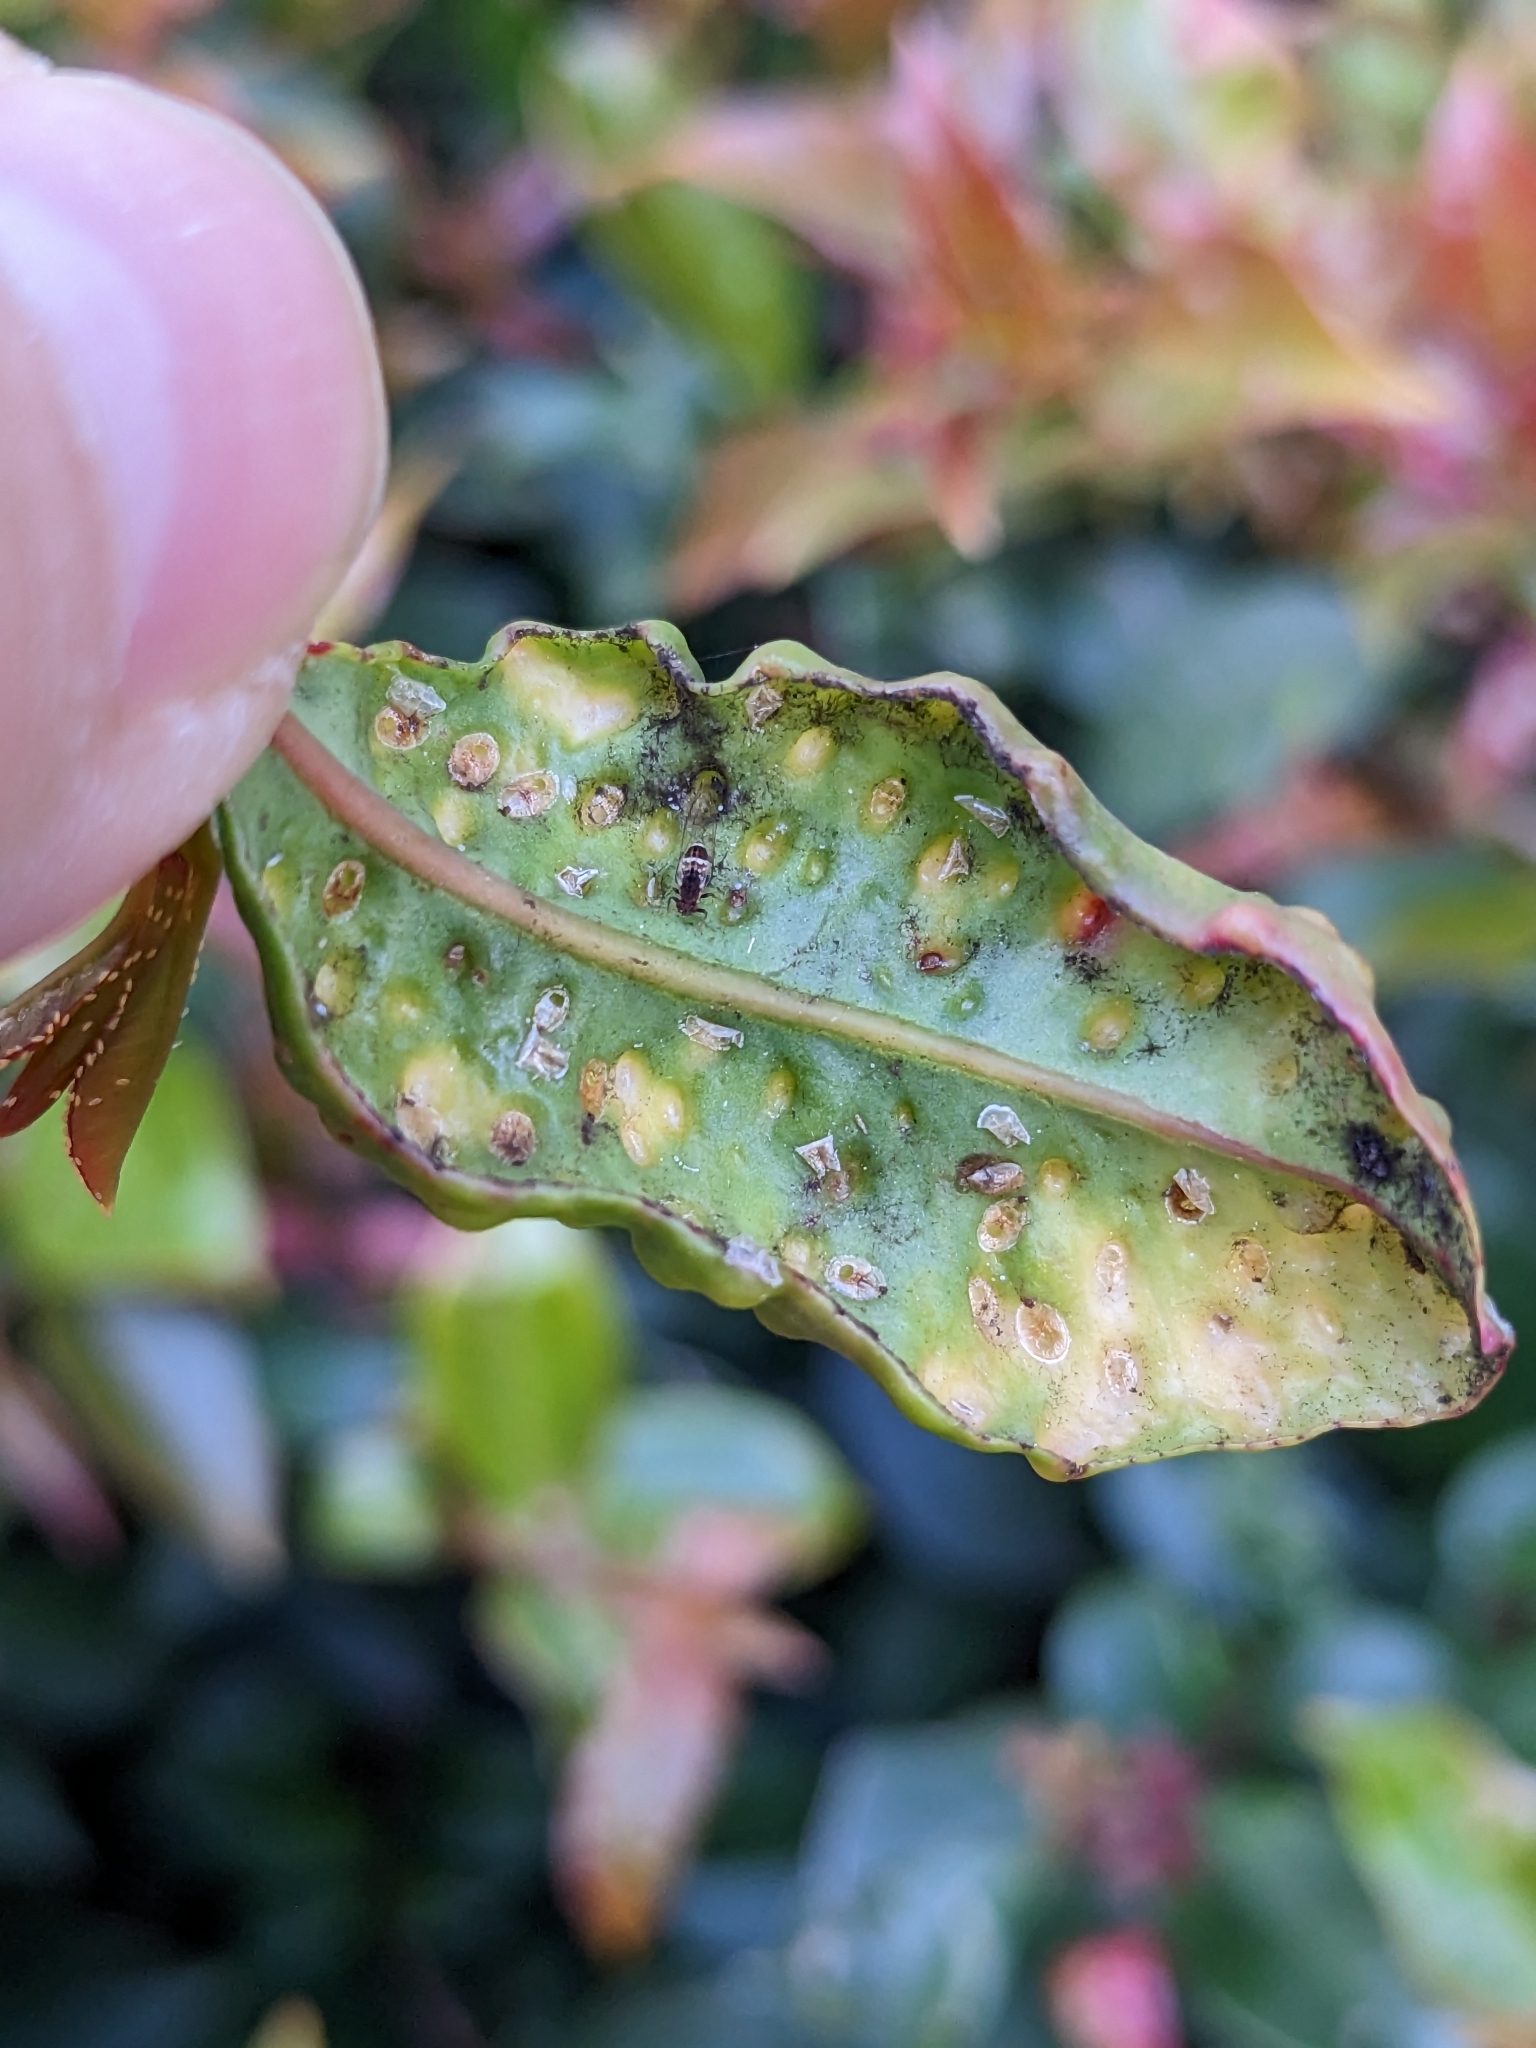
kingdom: Animalia
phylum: Arthropoda
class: Insecta
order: Hemiptera
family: Triozidae
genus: Trioza
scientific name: Trioza adventicia
